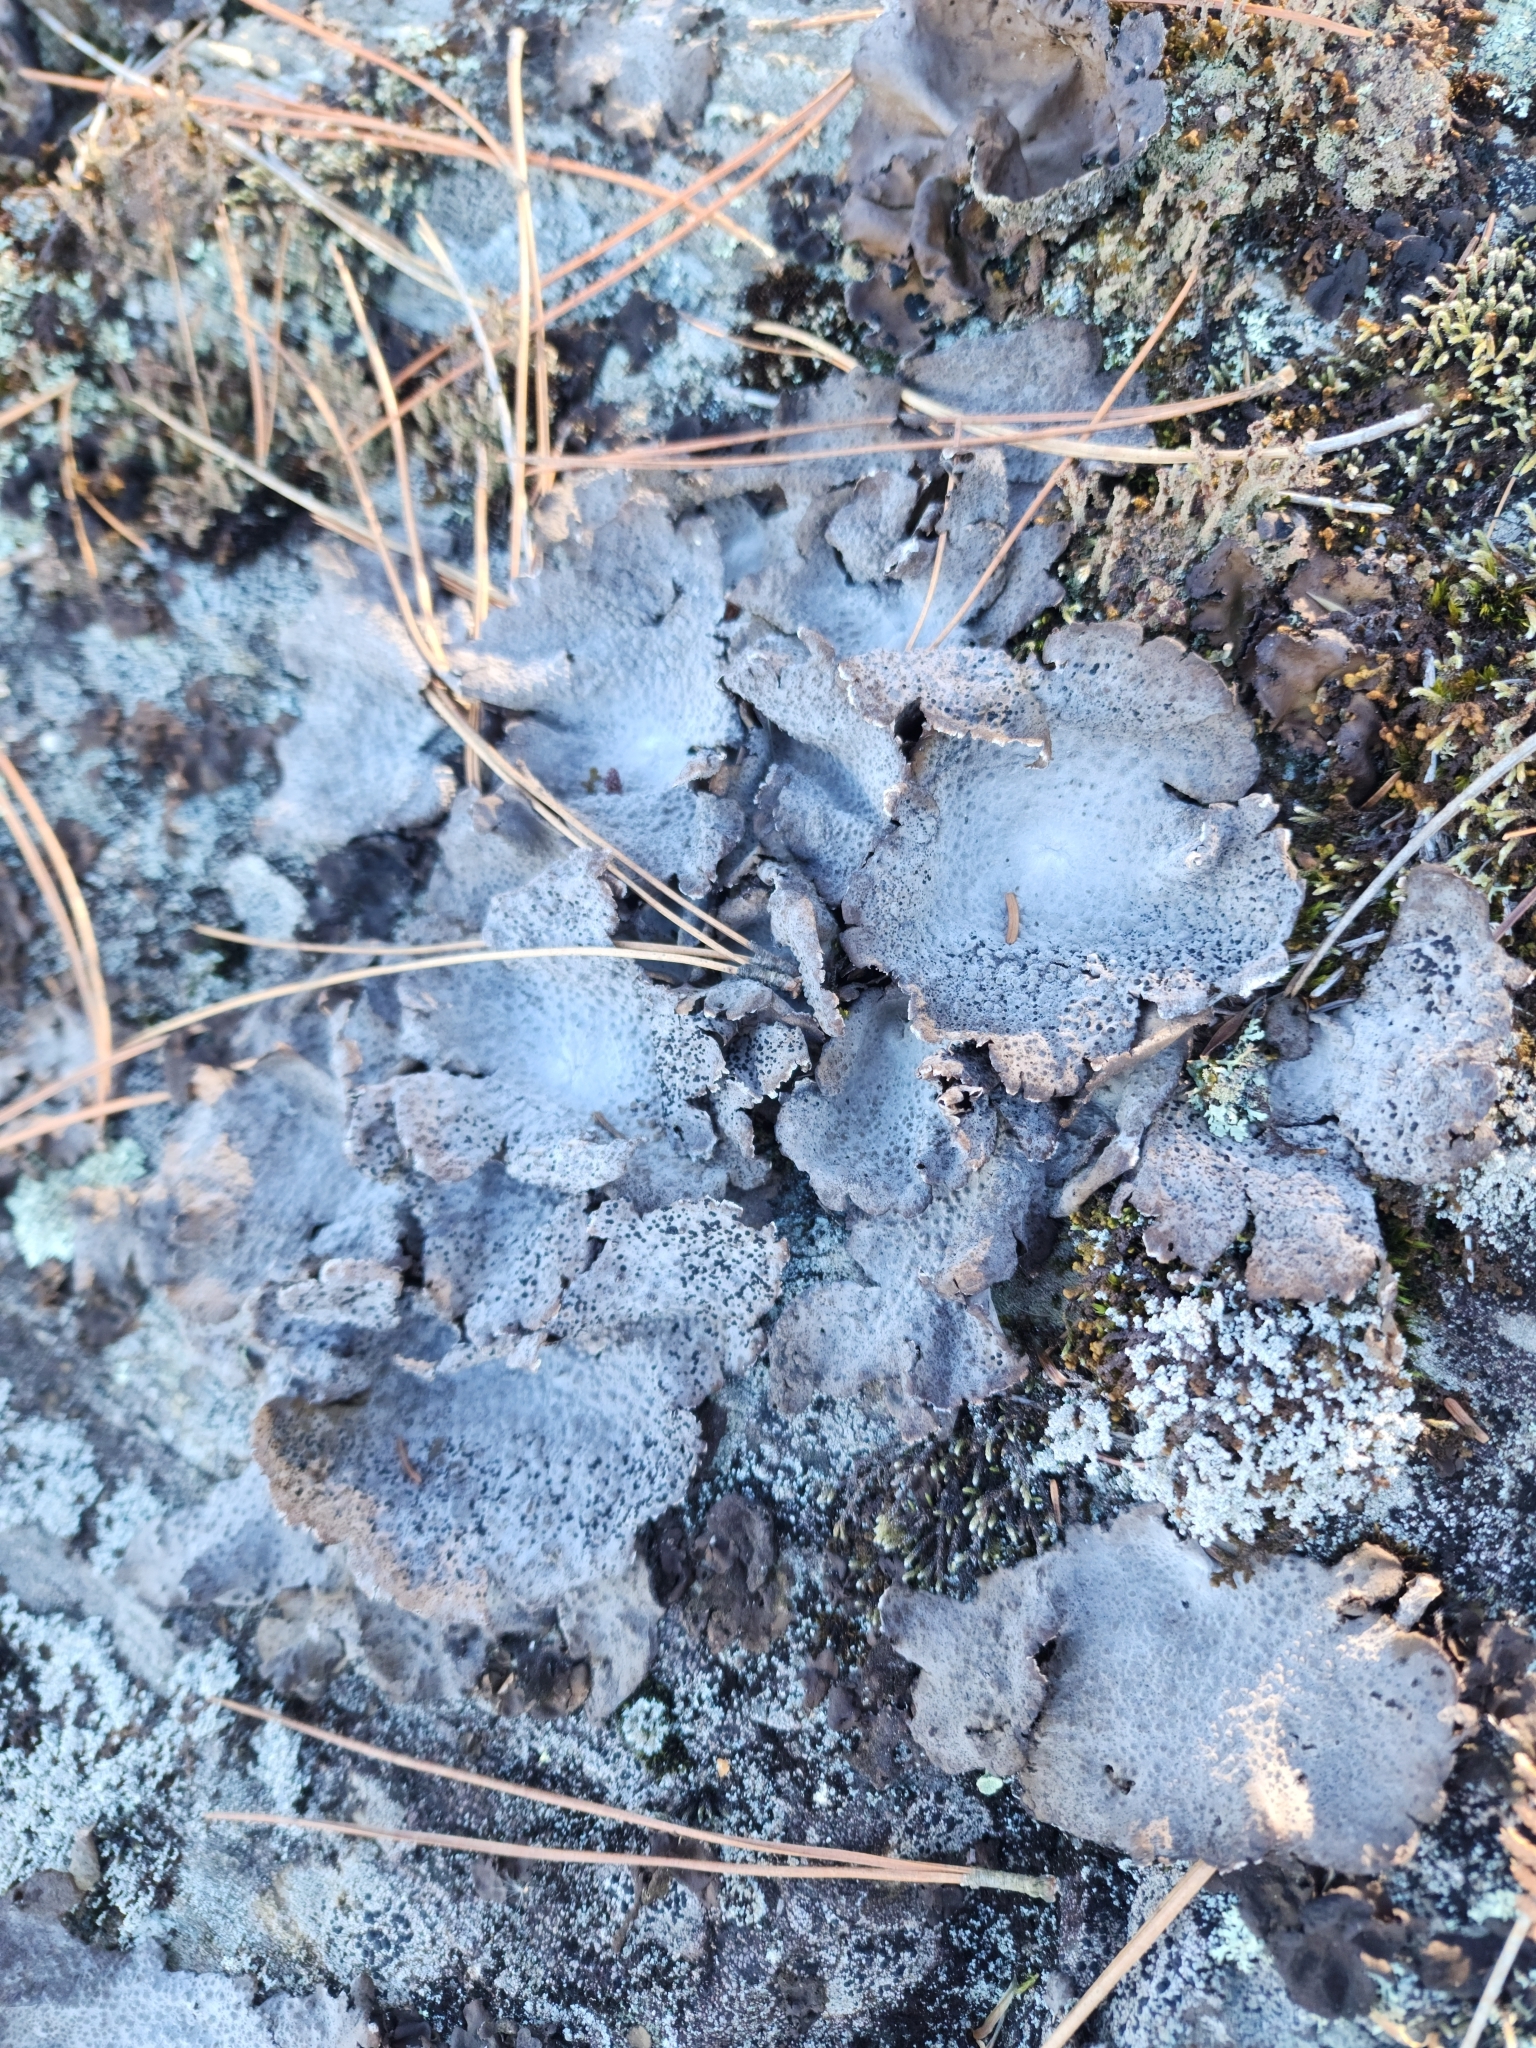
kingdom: Fungi
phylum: Ascomycota
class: Lecanoromycetes
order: Umbilicariales
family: Umbilicariaceae
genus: Lasallia
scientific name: Lasallia papulosa
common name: Common toadskin lichen
